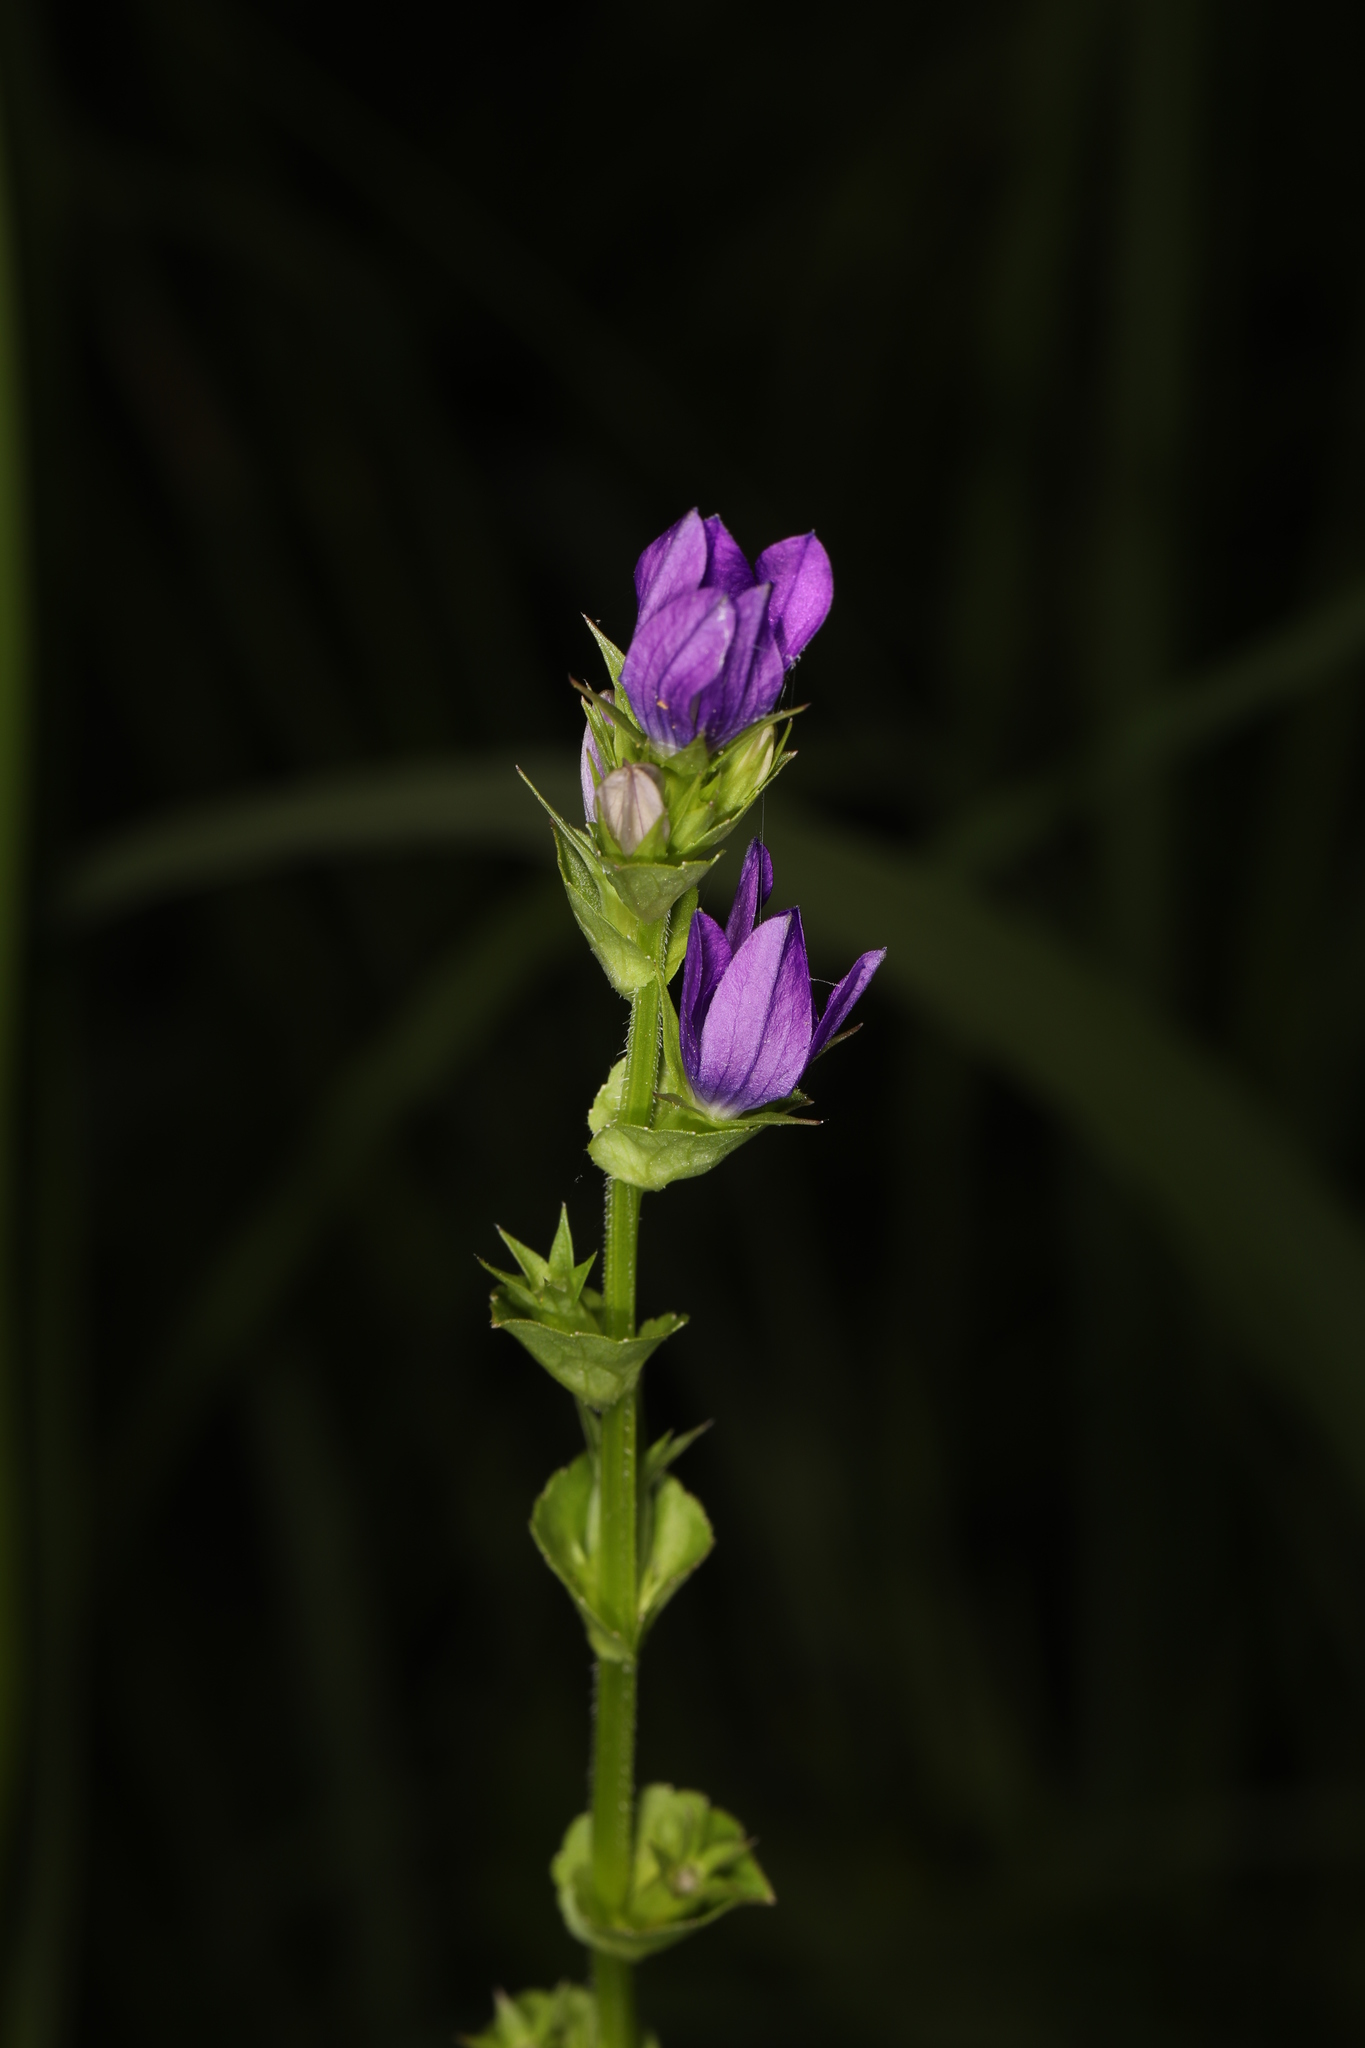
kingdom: Plantae
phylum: Tracheophyta
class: Magnoliopsida
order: Asterales
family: Campanulaceae
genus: Triodanis
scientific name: Triodanis perfoliata
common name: Clasping venus' looking-glass
